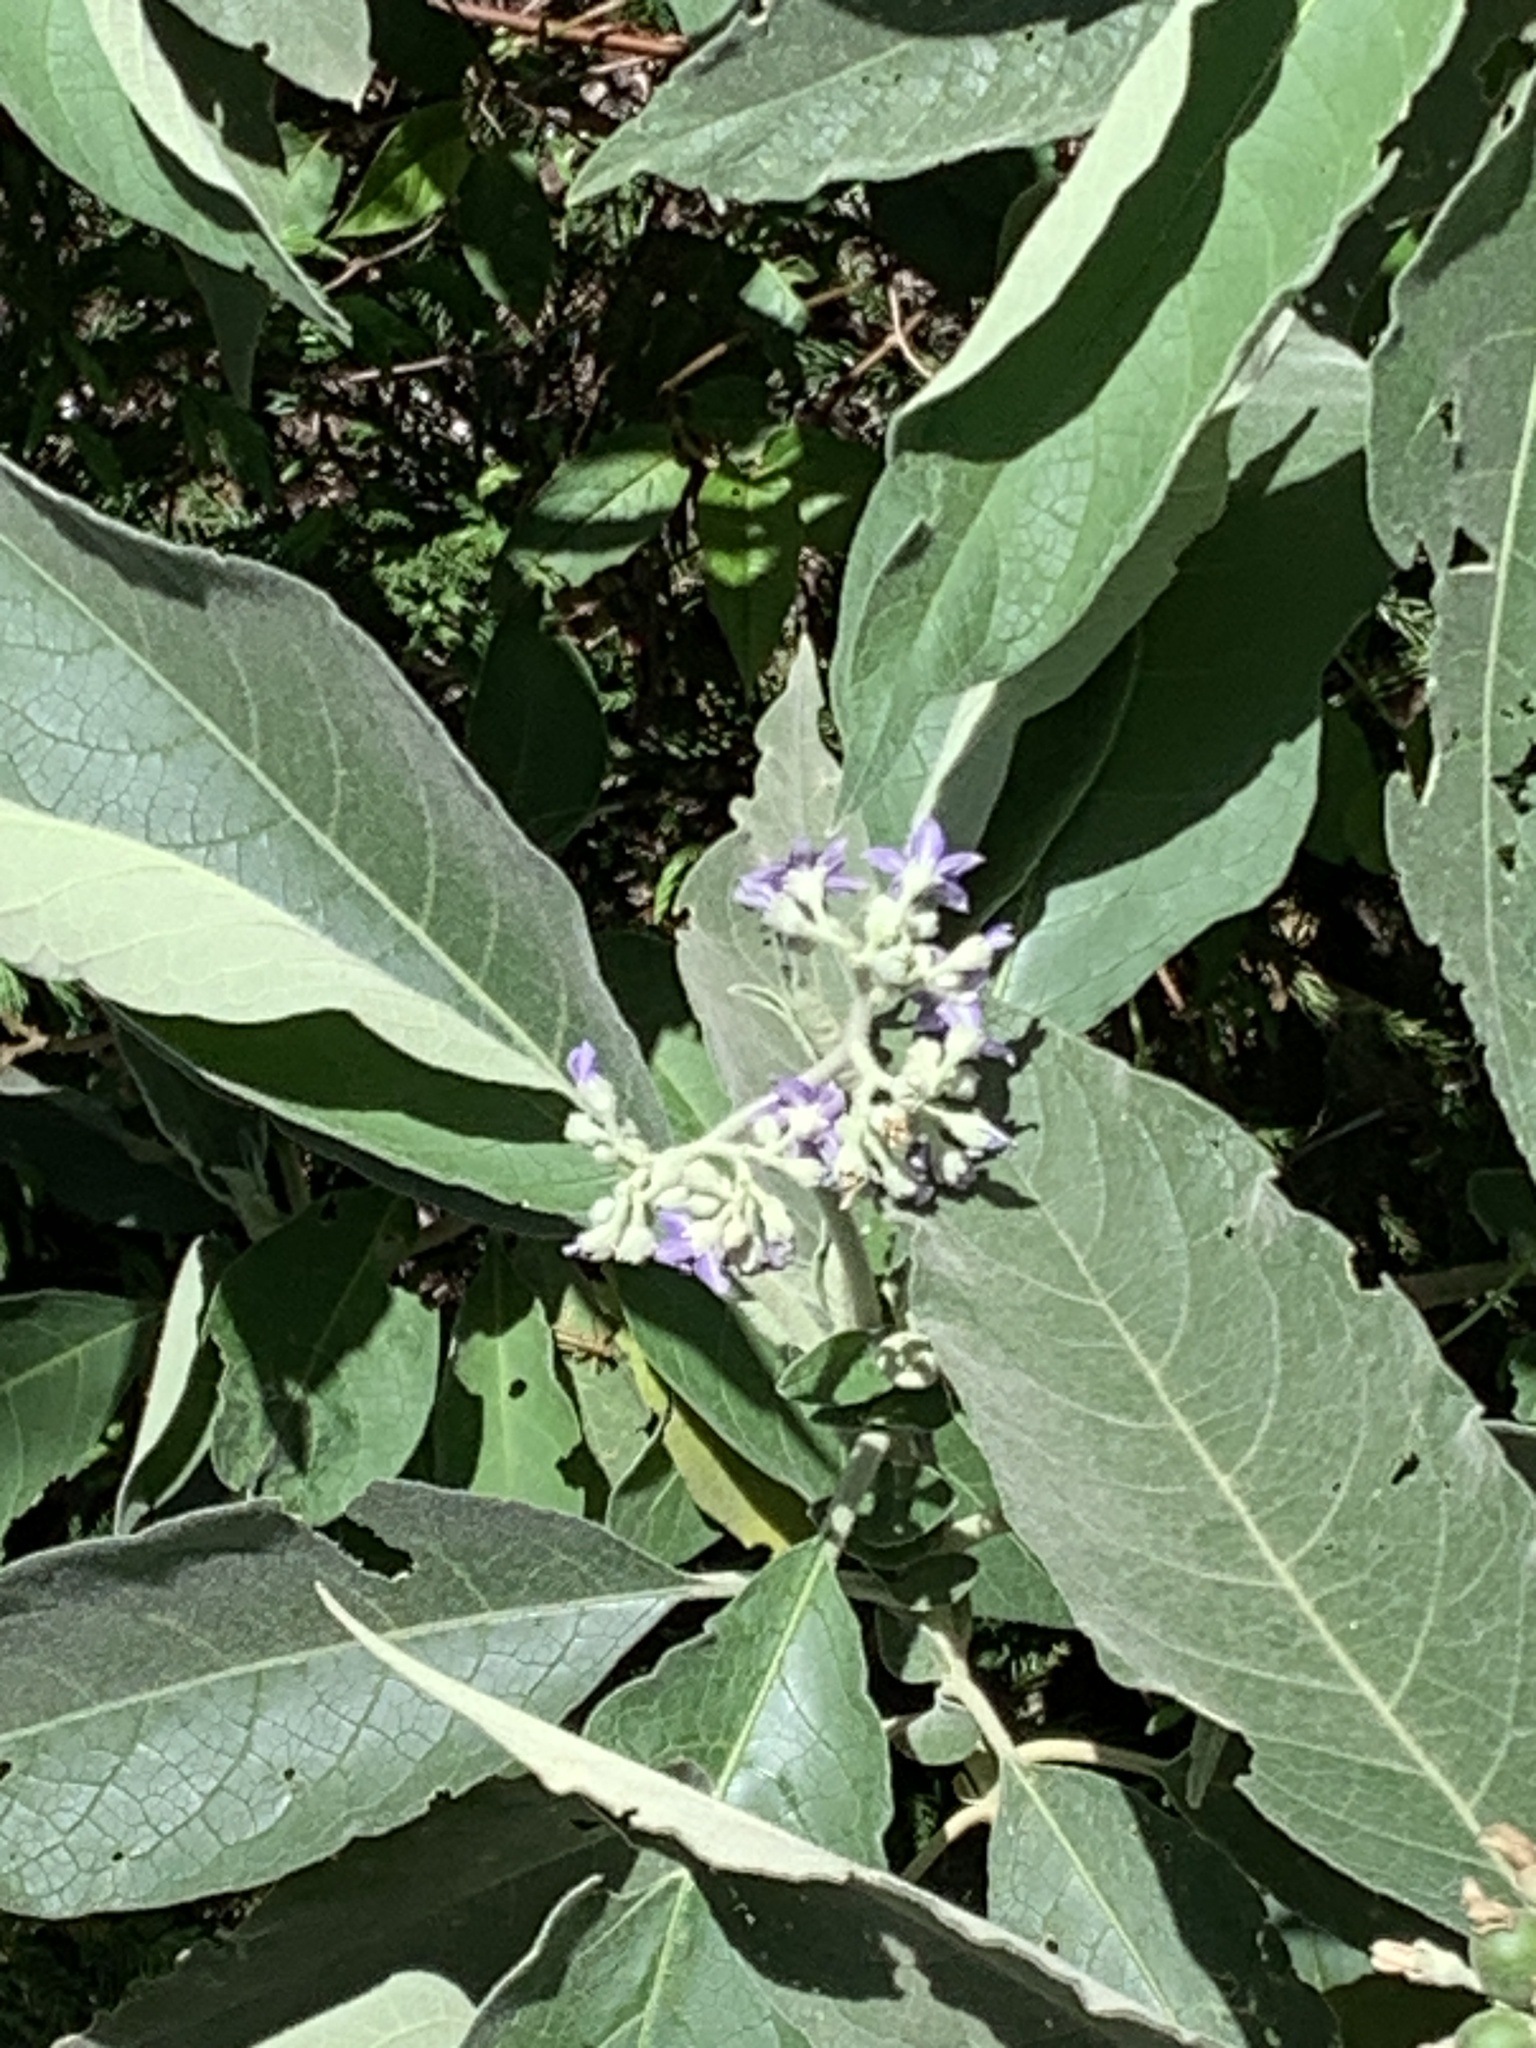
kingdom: Plantae
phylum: Tracheophyta
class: Magnoliopsida
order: Solanales
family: Solanaceae
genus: Solanum
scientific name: Solanum mauritianum
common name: Earleaf nightshade
